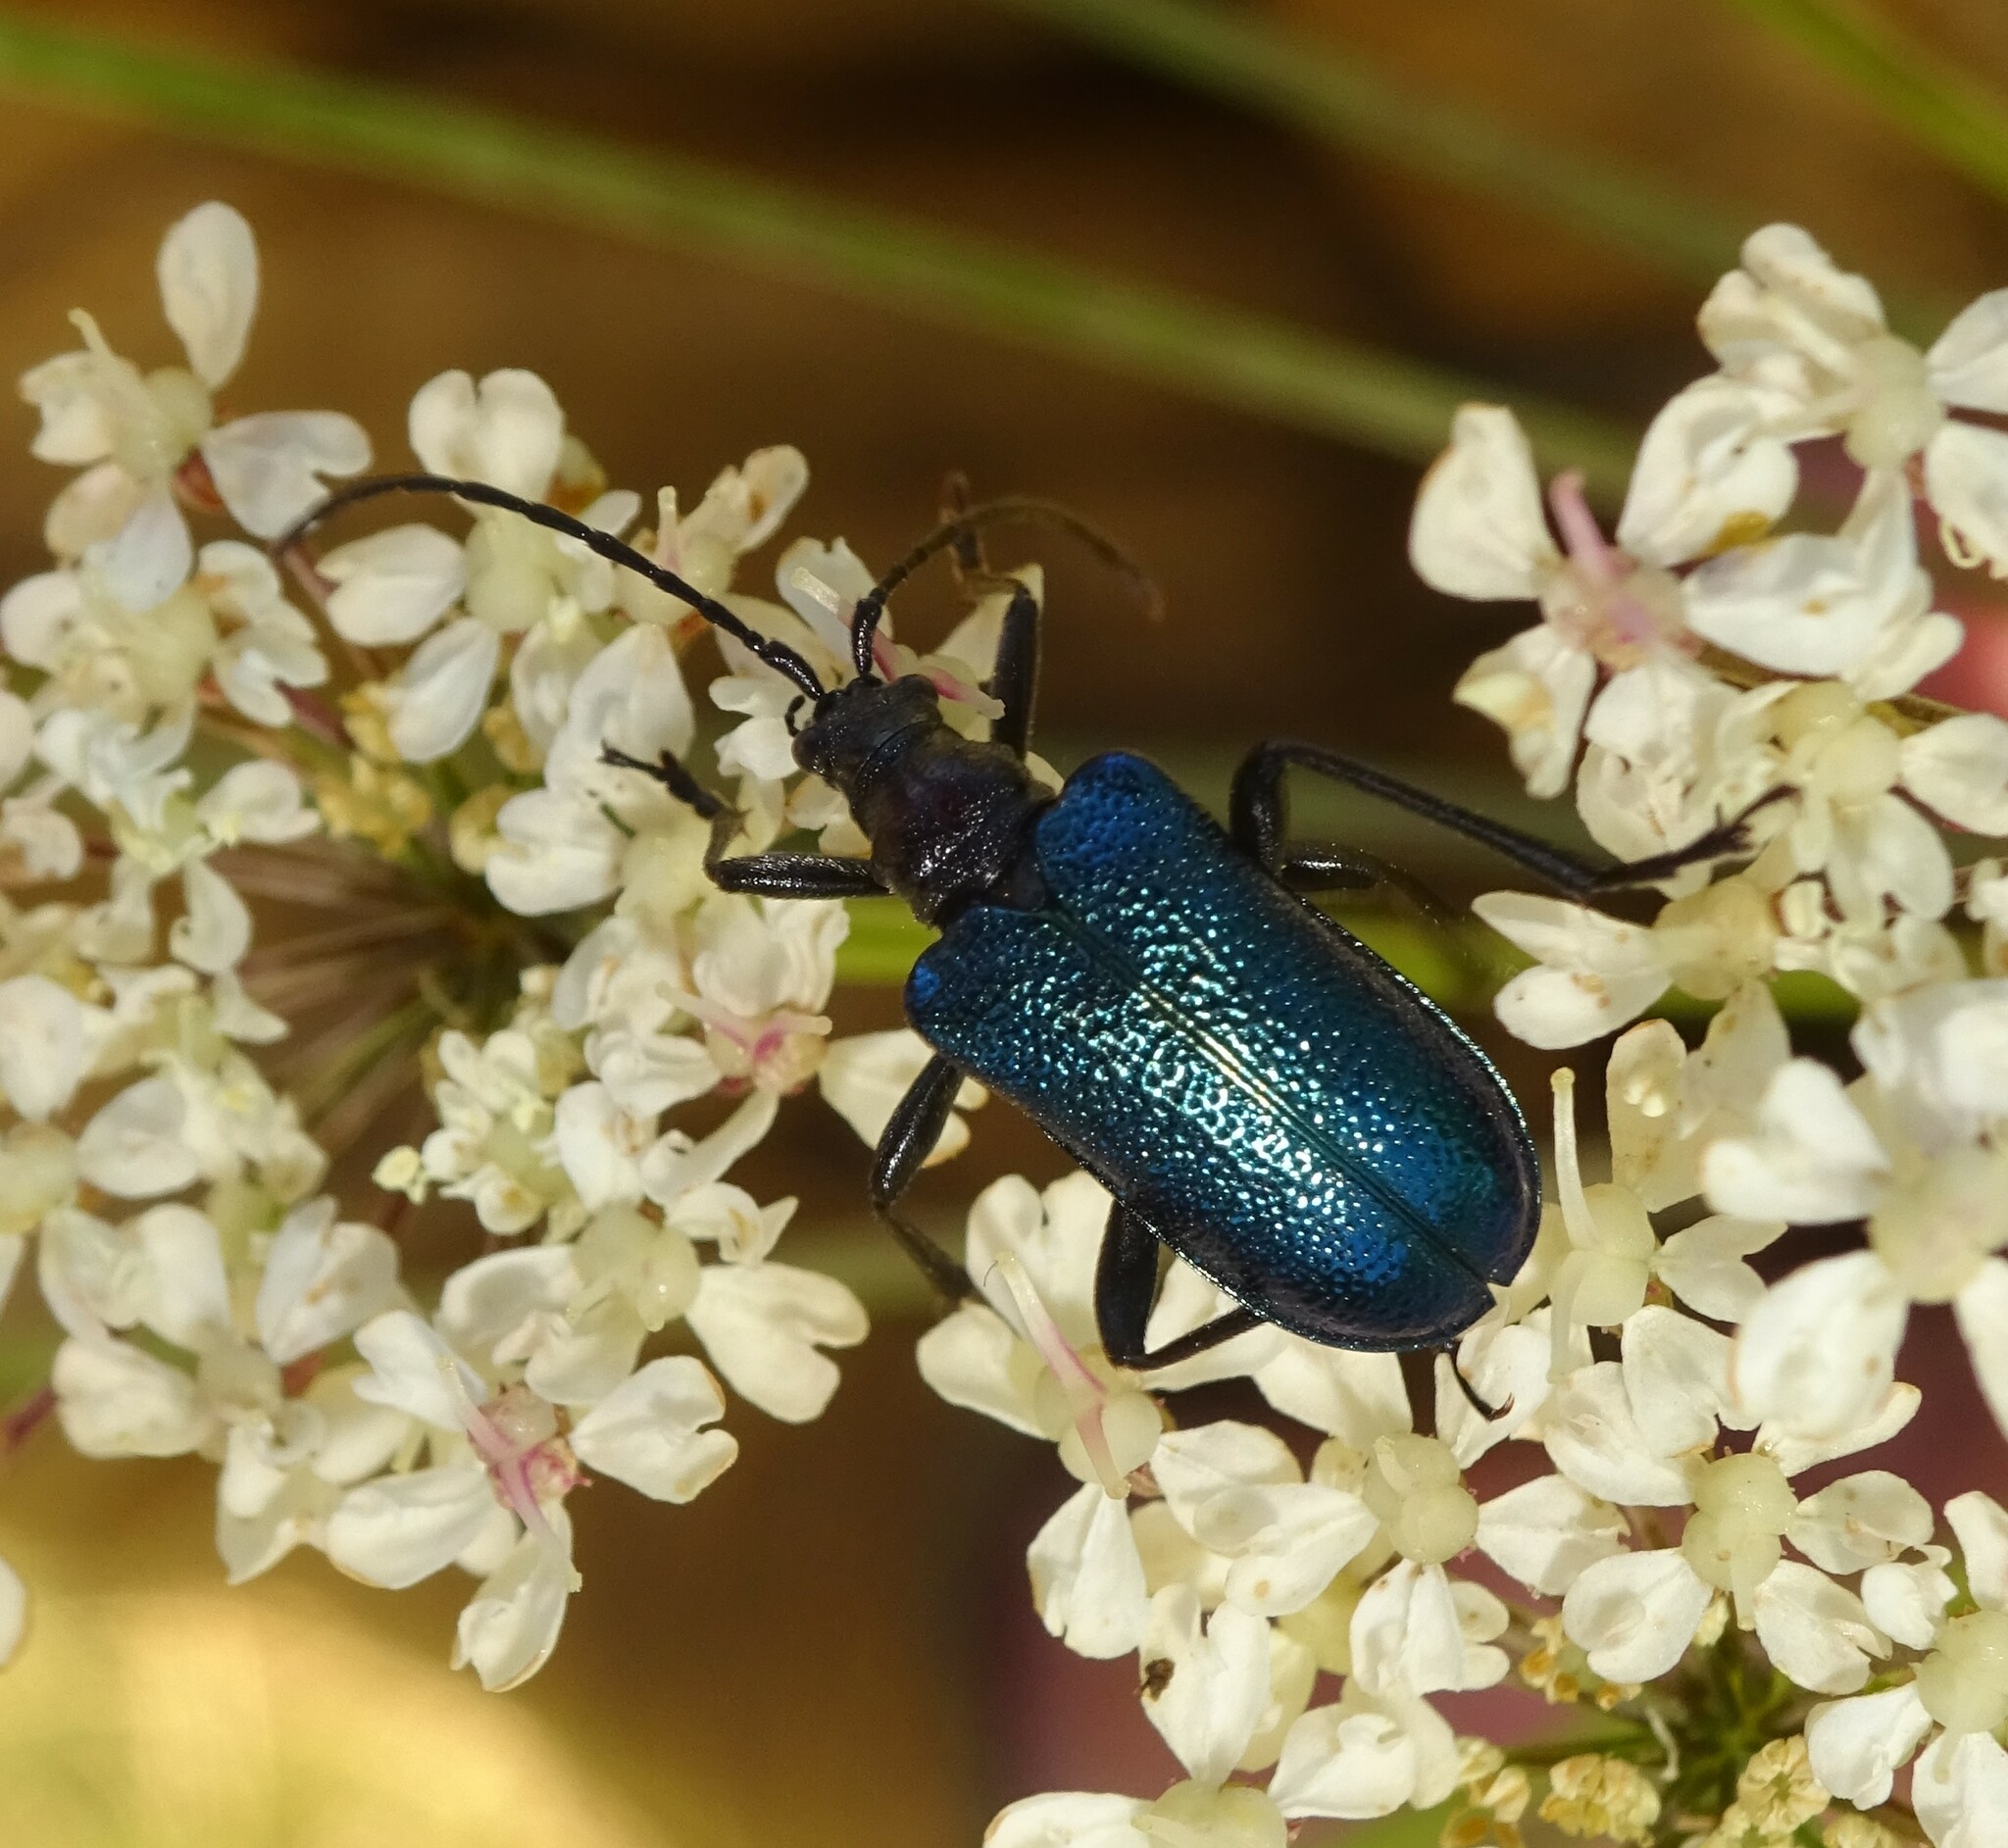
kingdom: Animalia
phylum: Arthropoda
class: Insecta
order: Coleoptera
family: Cerambycidae
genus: Gaurotes
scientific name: Gaurotes virginea
